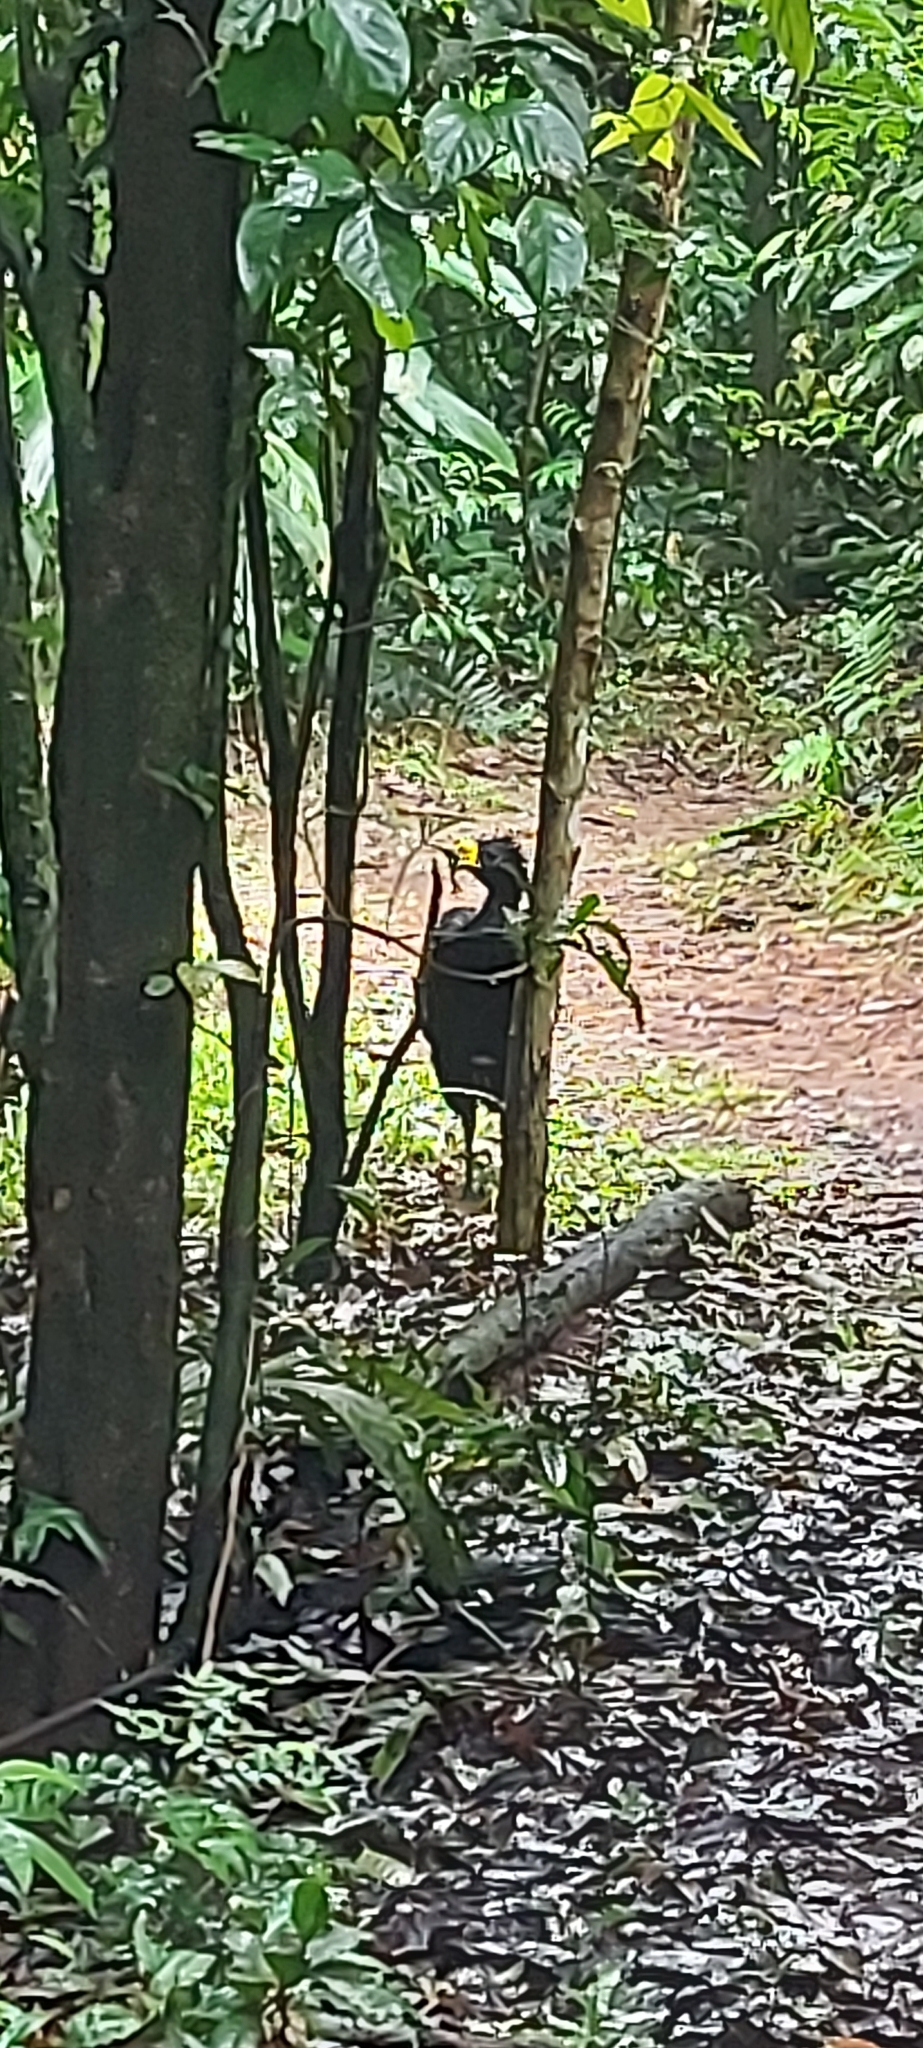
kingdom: Animalia
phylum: Chordata
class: Aves
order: Galliformes
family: Cracidae
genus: Crax
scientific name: Crax rubra
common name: Great curassow
